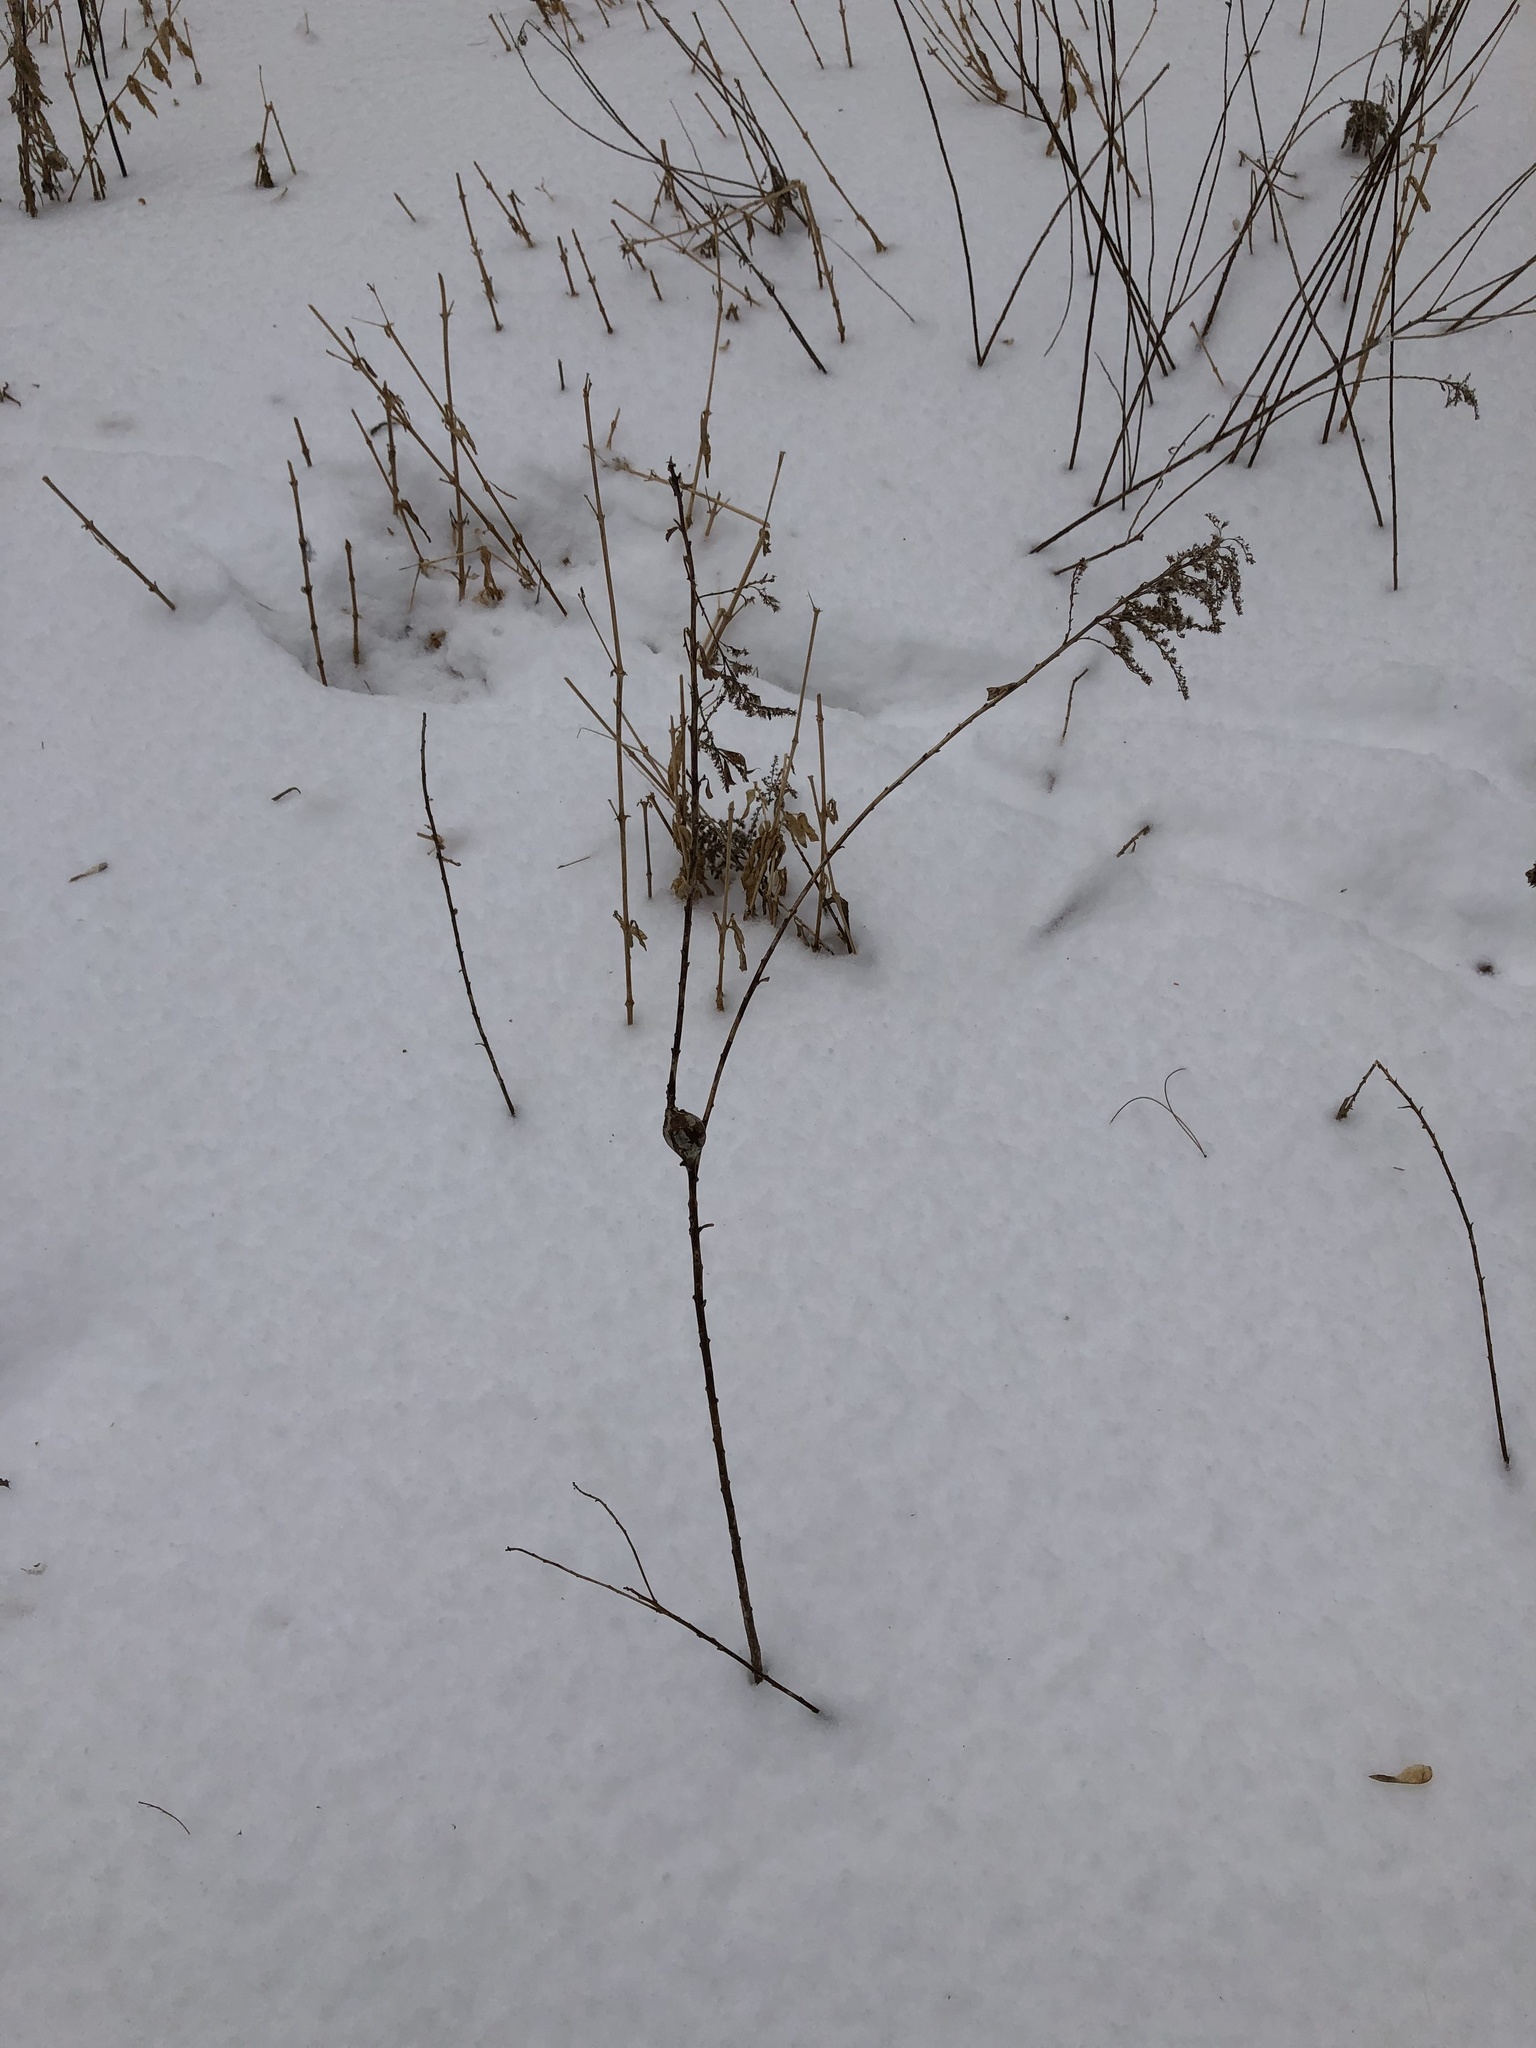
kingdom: Animalia
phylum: Arthropoda
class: Insecta
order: Diptera
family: Tephritidae
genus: Eurosta
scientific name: Eurosta solidaginis
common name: Goldenrod gall fly
